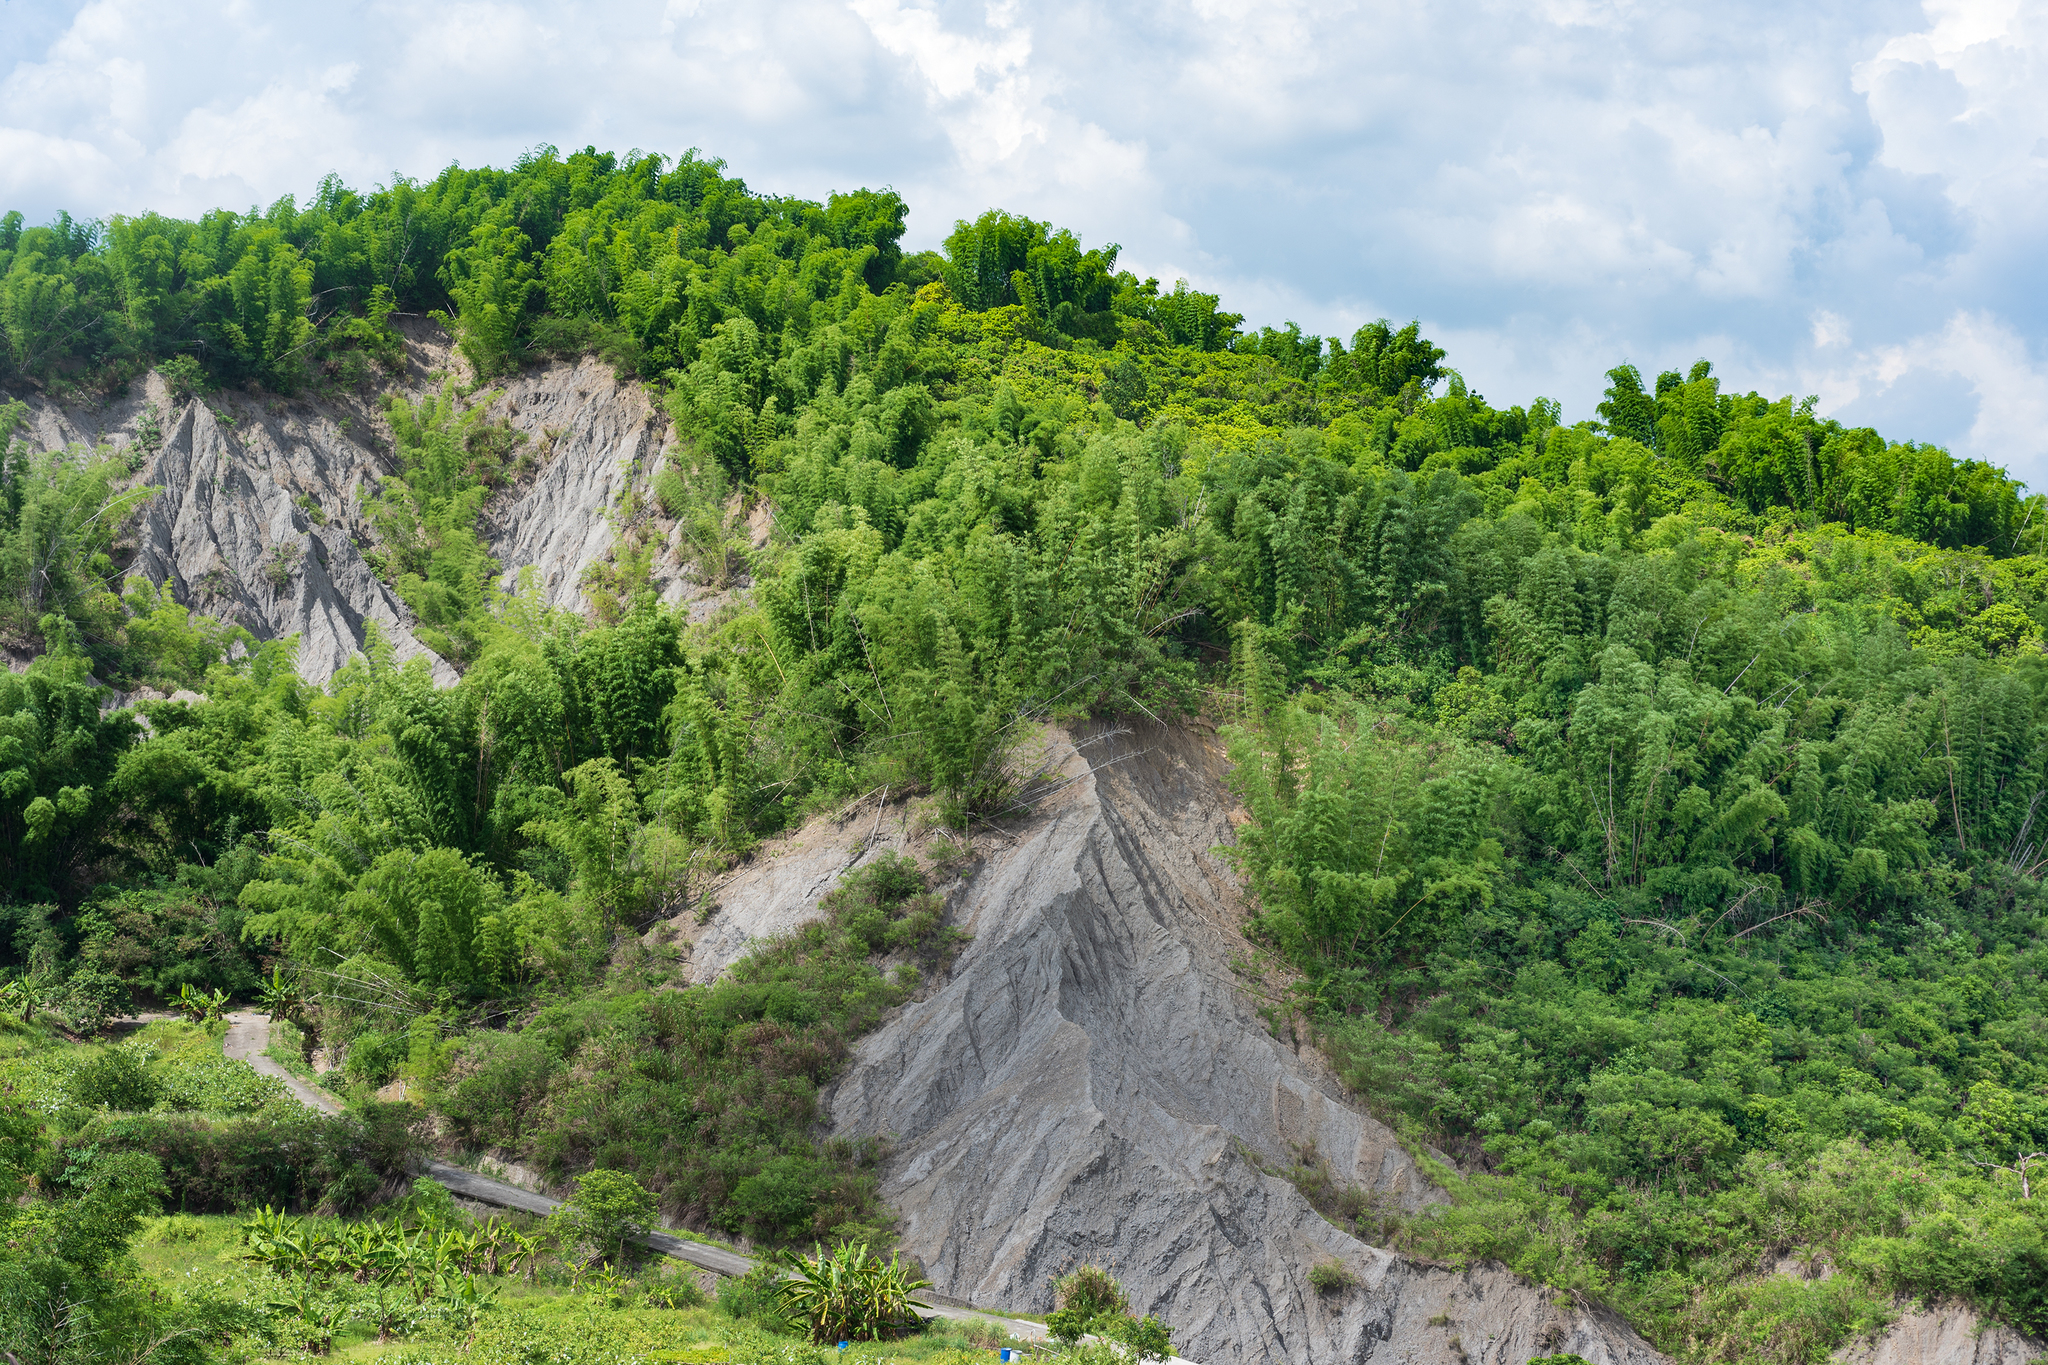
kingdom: Plantae
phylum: Tracheophyta
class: Liliopsida
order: Poales
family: Poaceae
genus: Bambusa
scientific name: Bambusa spinosa
